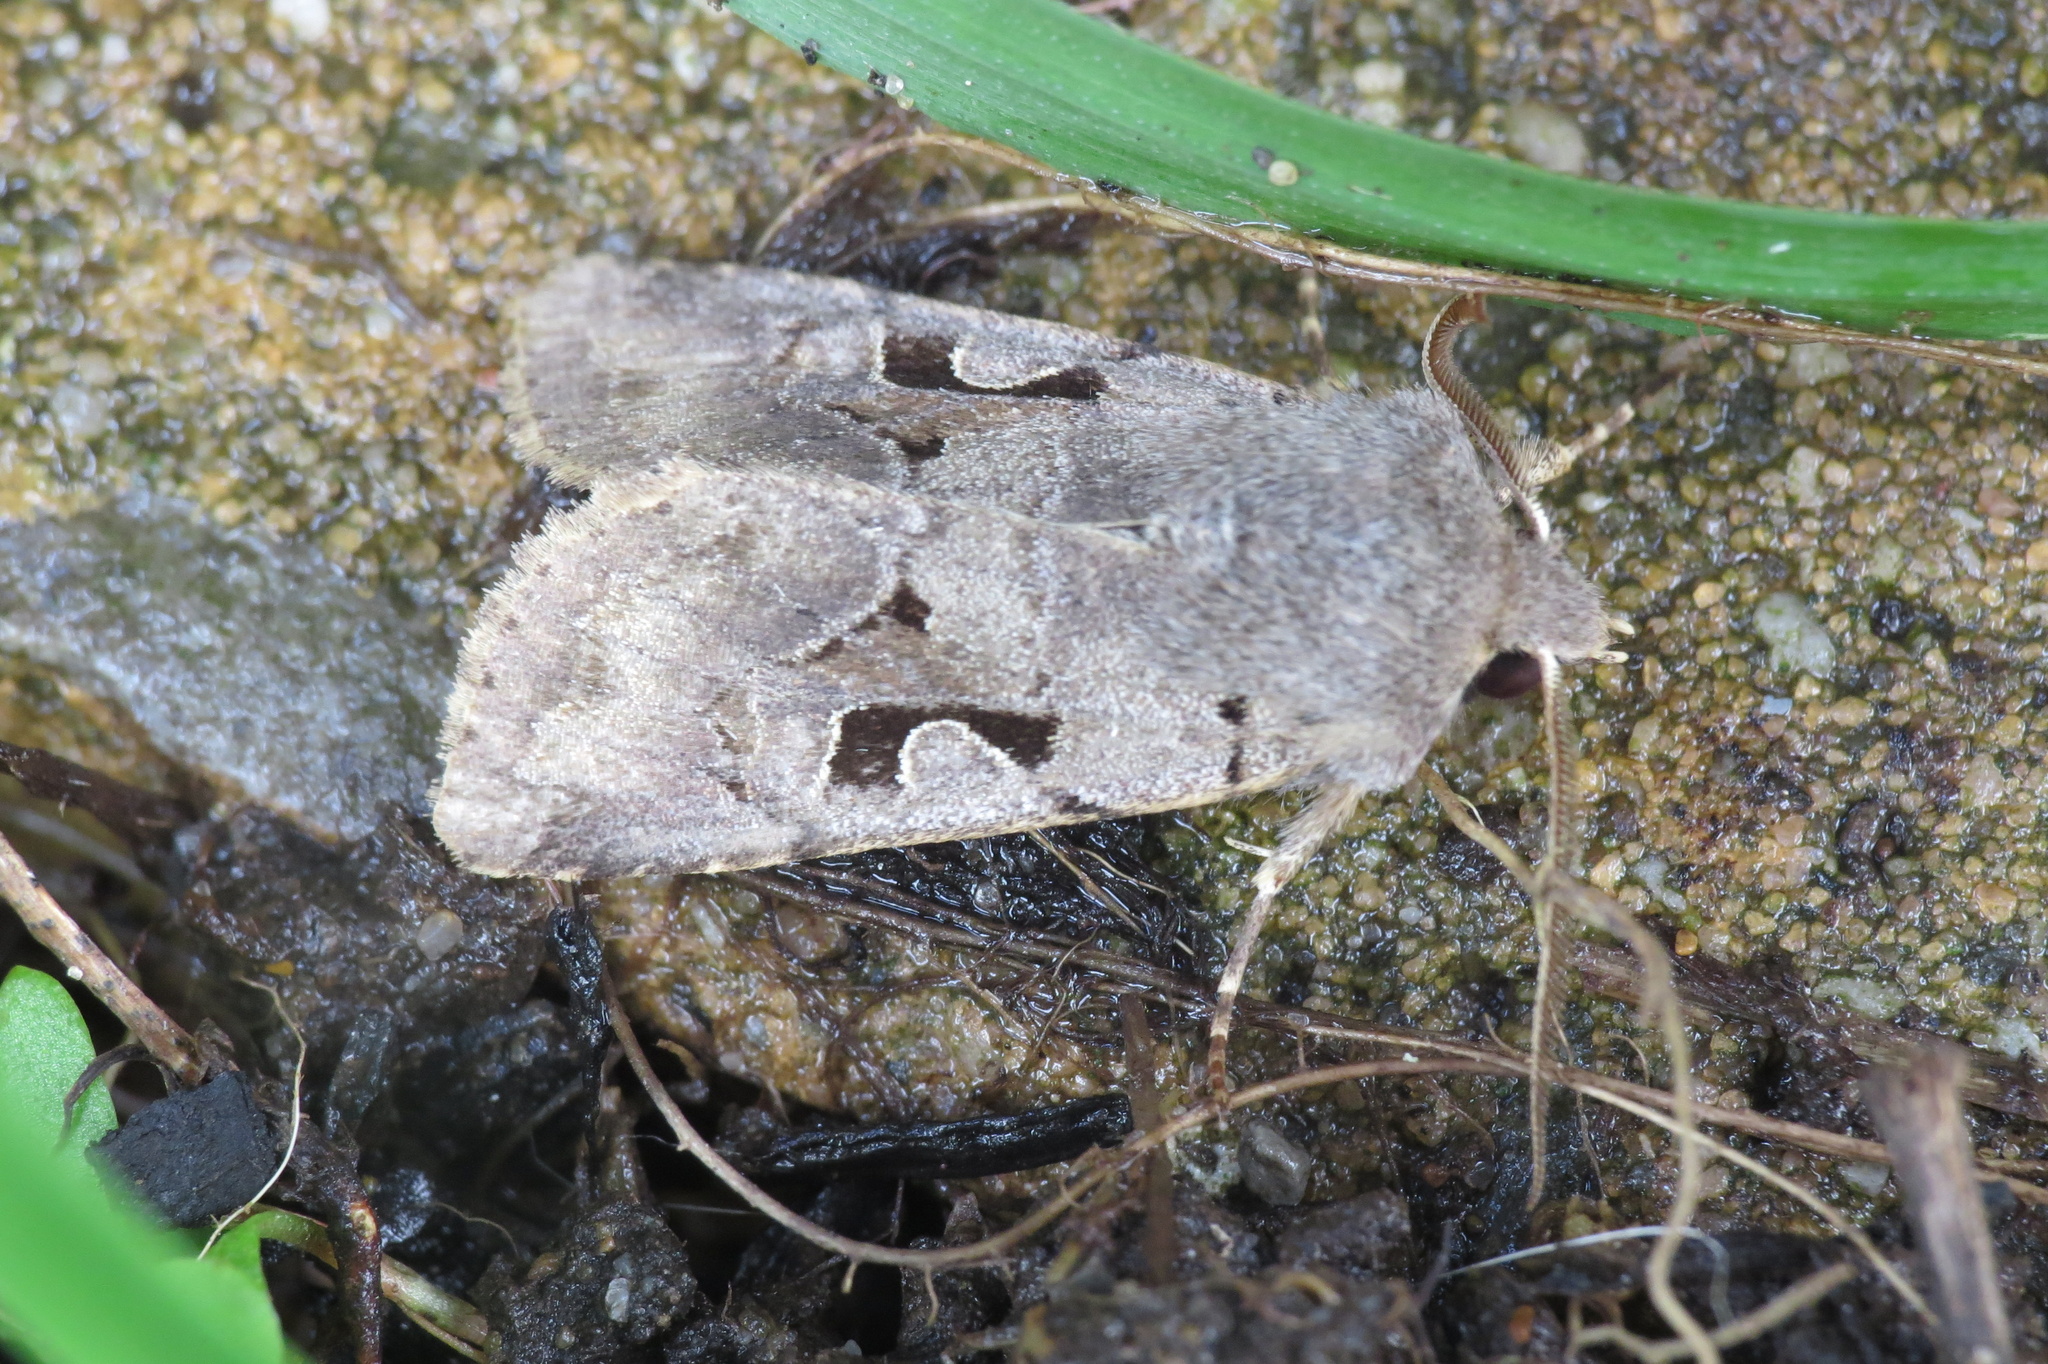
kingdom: Animalia
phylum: Arthropoda
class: Insecta
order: Lepidoptera
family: Noctuidae
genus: Orthosia
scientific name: Orthosia gothica
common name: Hebrew character
